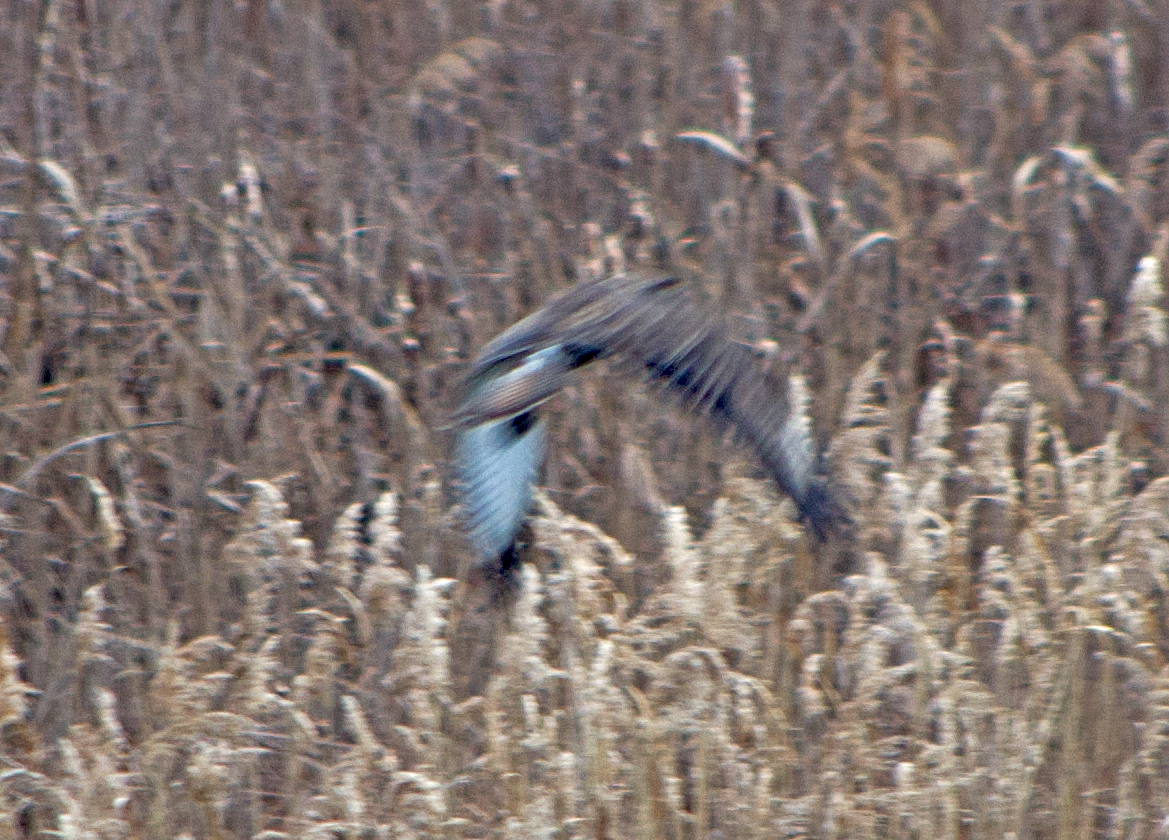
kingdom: Animalia
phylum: Chordata
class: Aves
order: Accipitriformes
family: Accipitridae
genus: Buteo
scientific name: Buteo buteo
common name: Common buzzard
